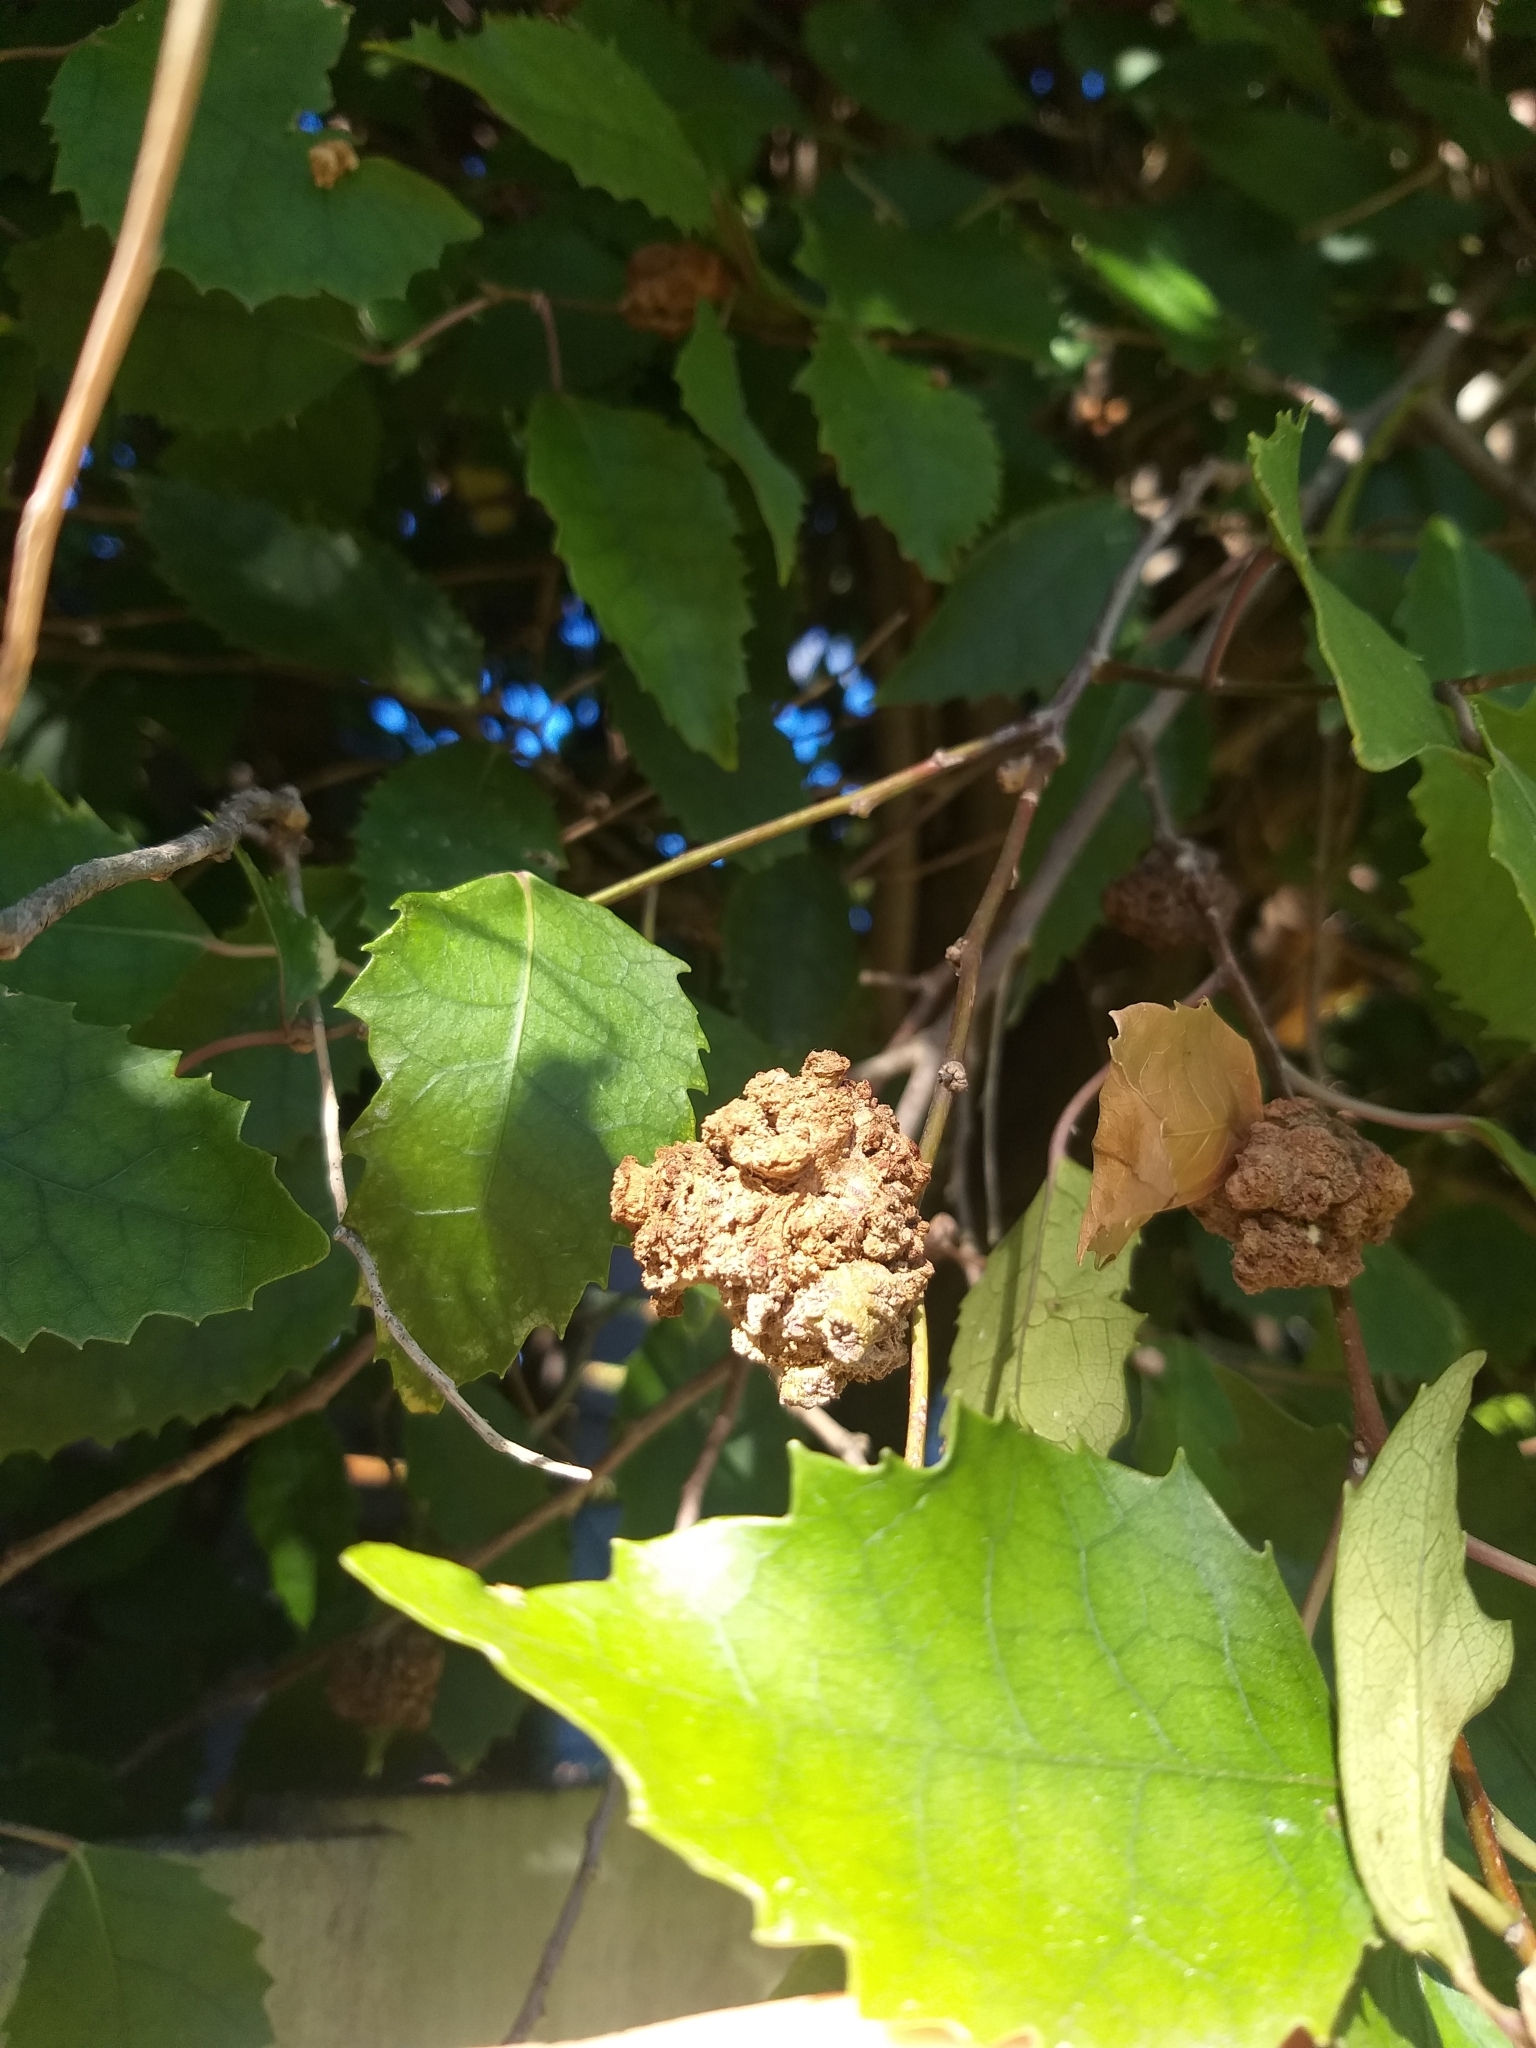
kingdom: Animalia
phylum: Arthropoda
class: Arachnida
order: Trombidiformes
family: Eriophyidae
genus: Eriophyes
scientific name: Eriophyes hoheriae
